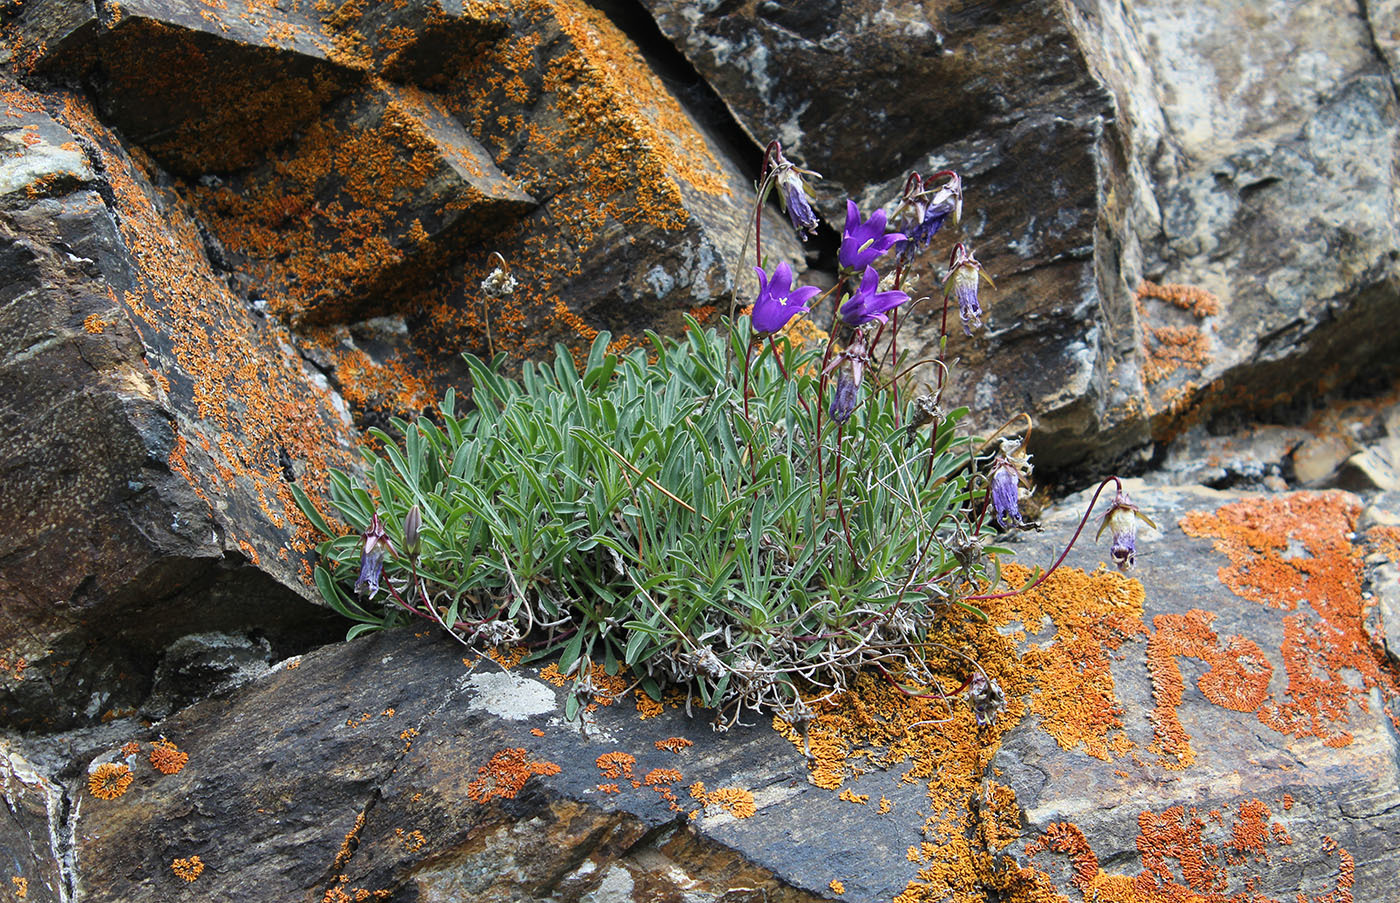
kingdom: Plantae
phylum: Tracheophyta
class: Magnoliopsida
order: Asterales
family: Campanulaceae
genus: Campanula
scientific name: Campanula saxifraga
